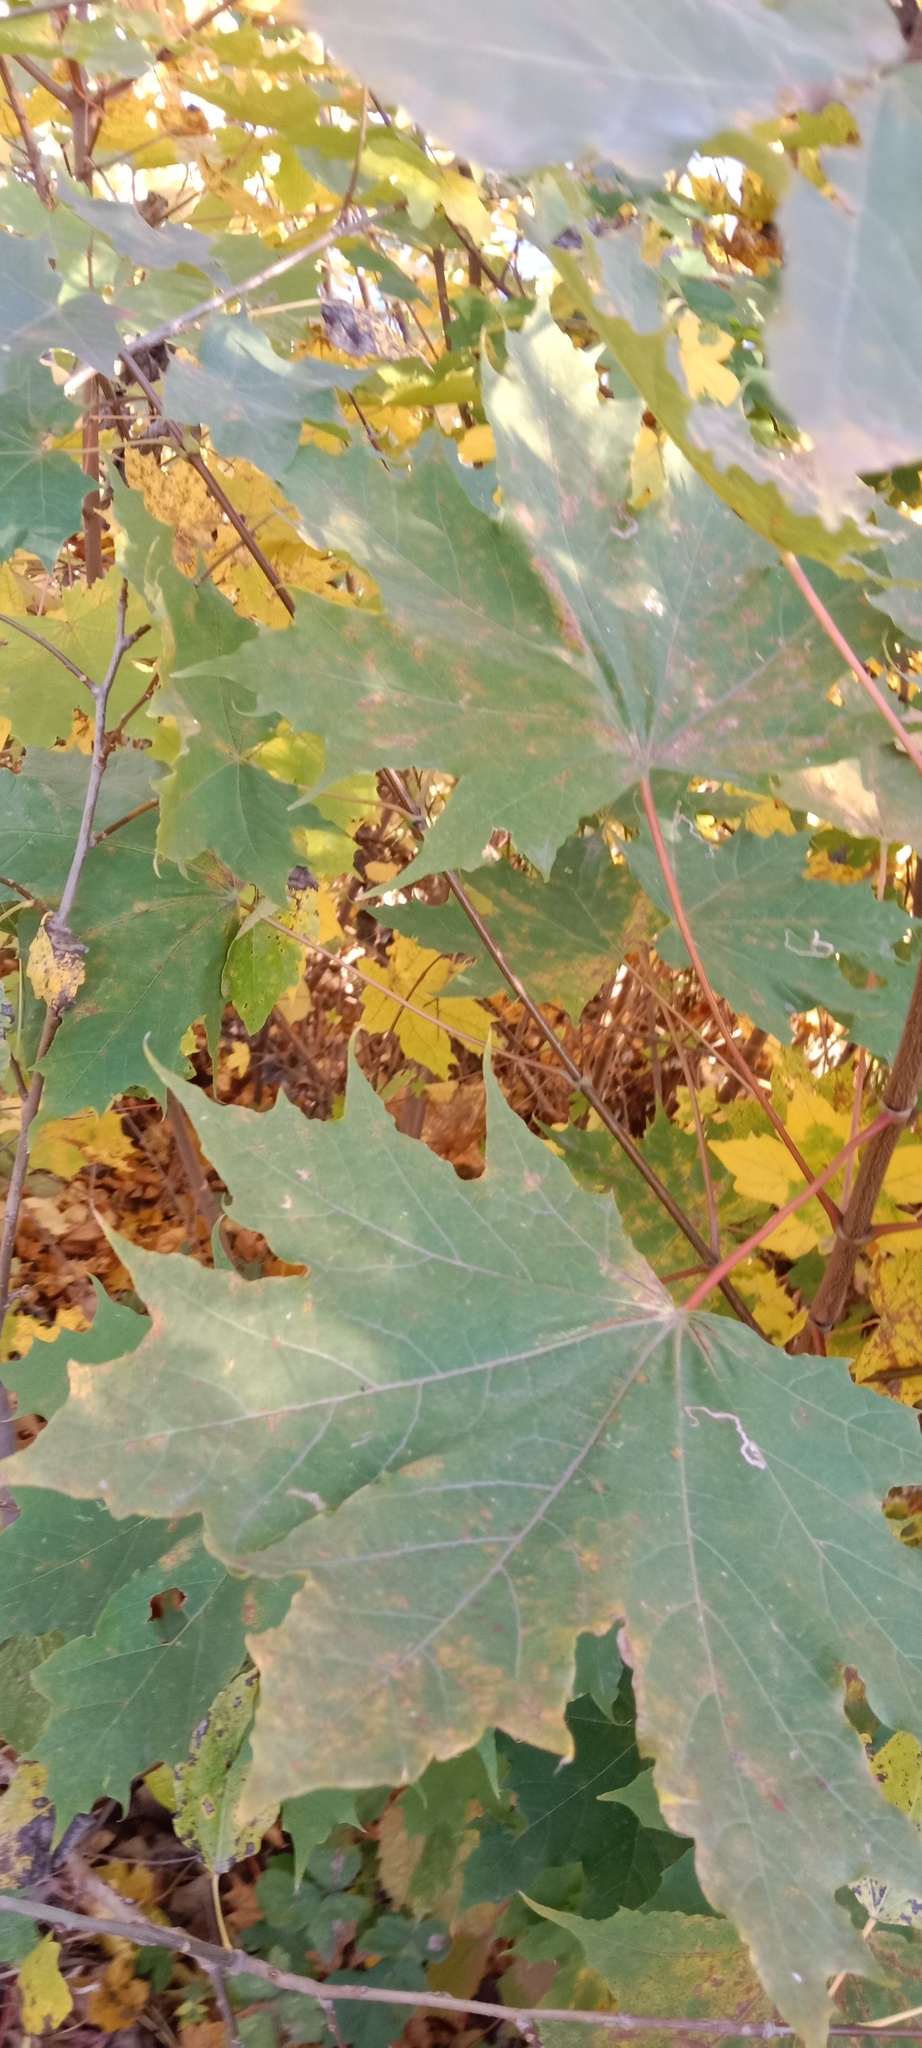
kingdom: Plantae
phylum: Tracheophyta
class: Magnoliopsida
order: Sapindales
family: Sapindaceae
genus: Acer
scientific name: Acer platanoides
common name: Norway maple
